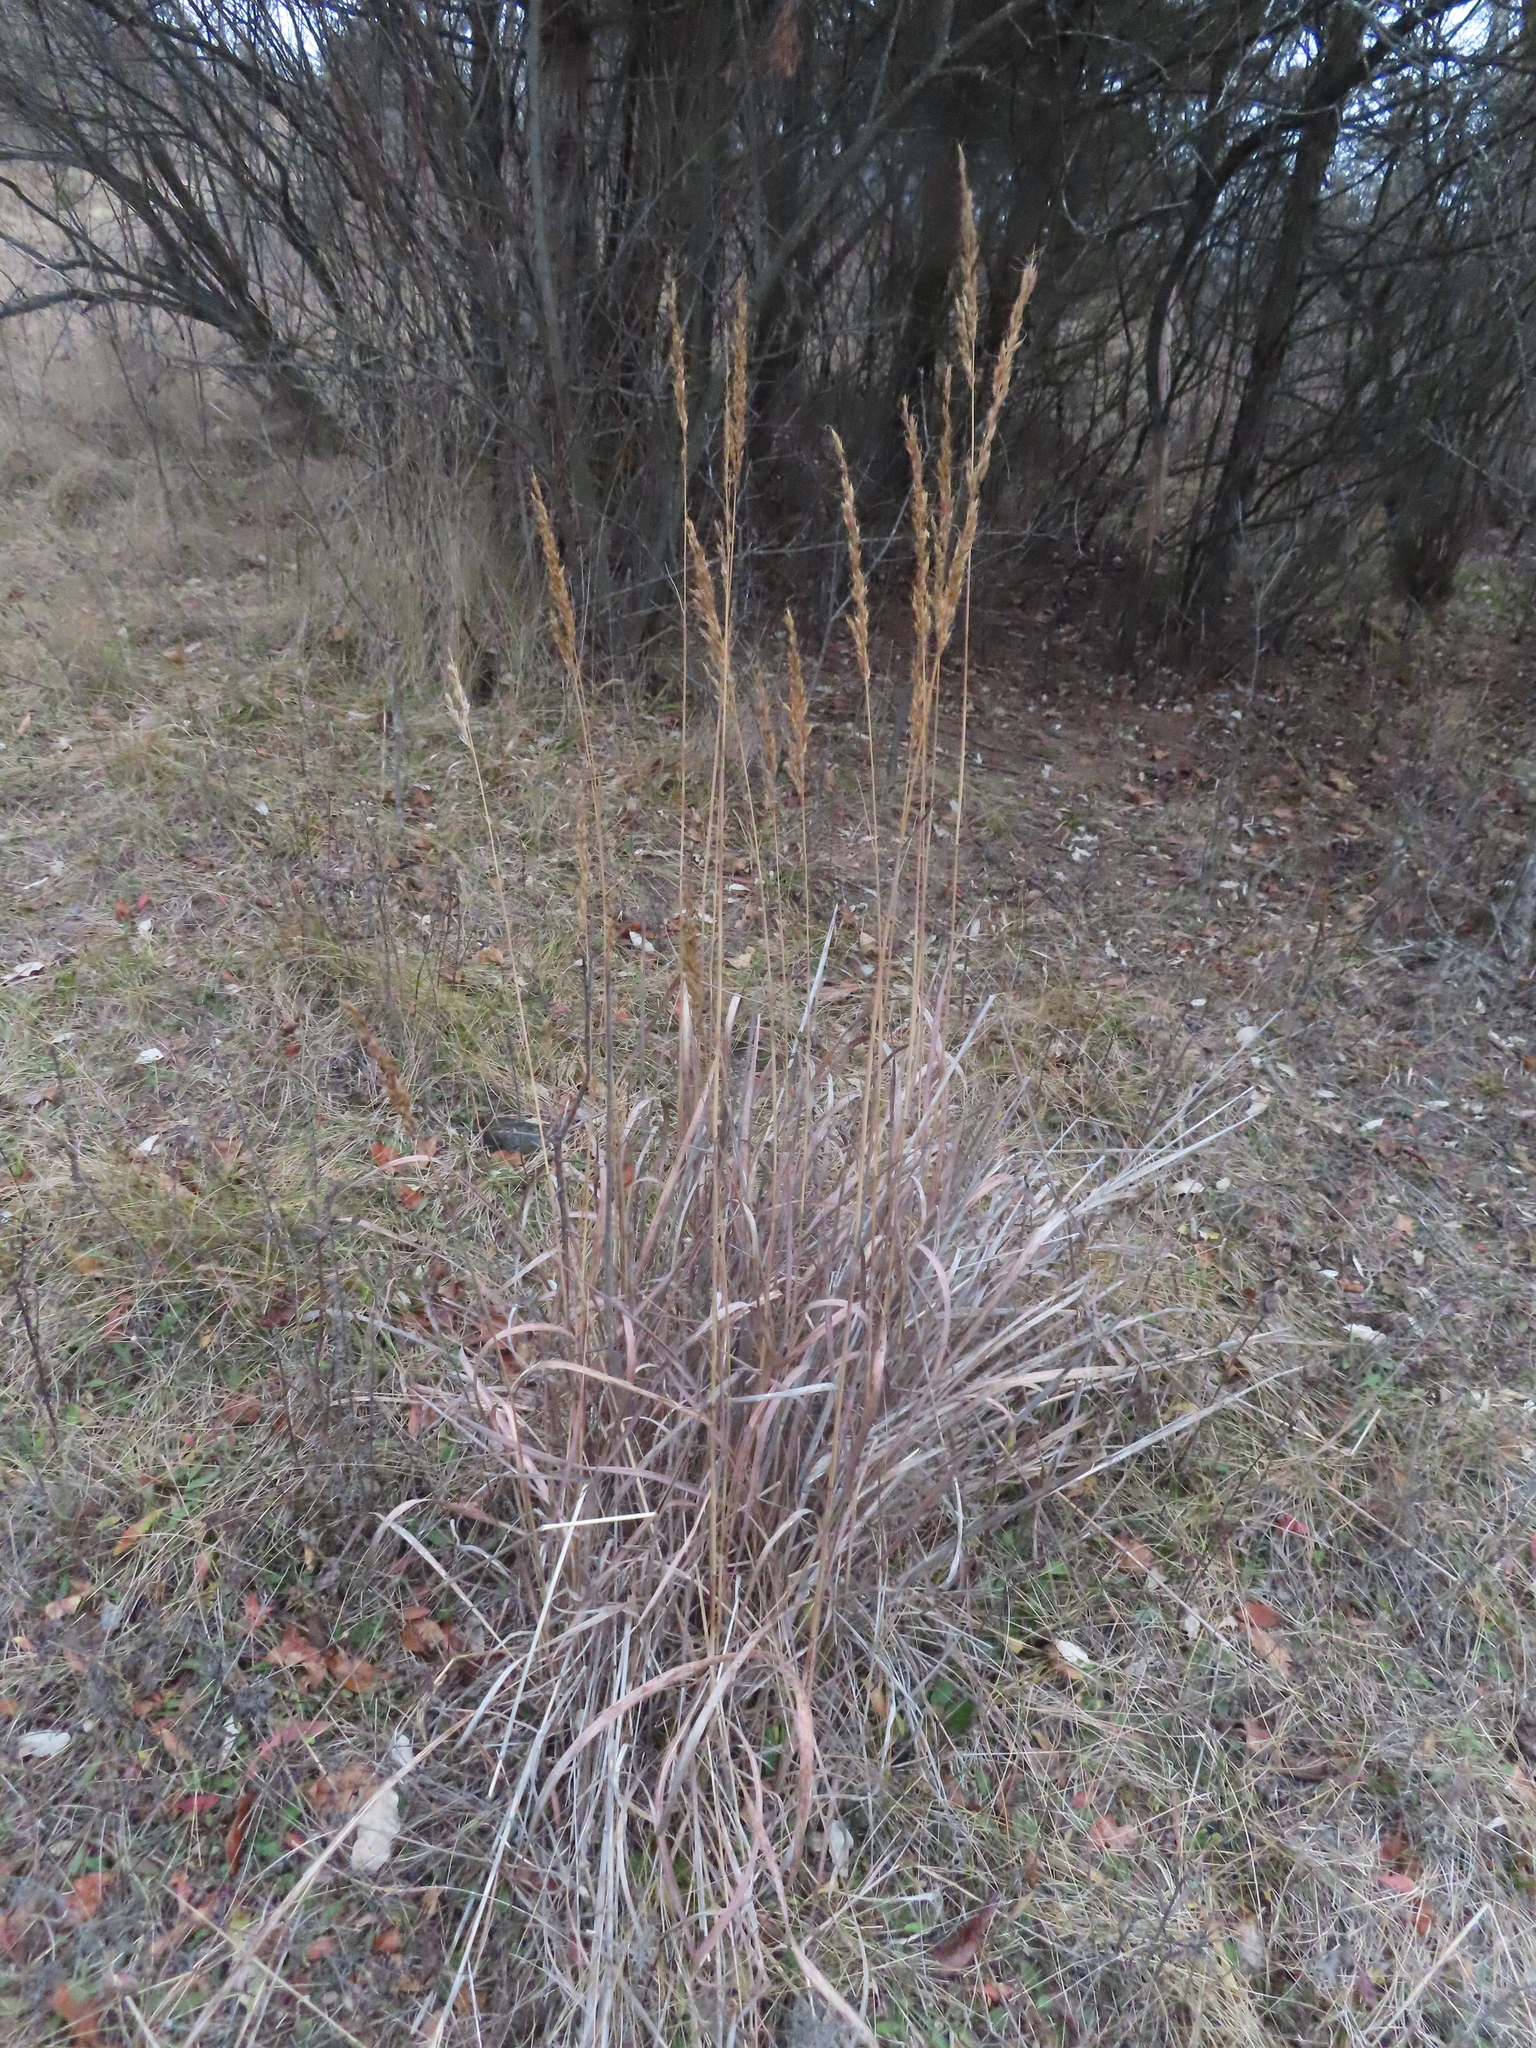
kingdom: Plantae
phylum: Tracheophyta
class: Liliopsida
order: Poales
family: Poaceae
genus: Sorghastrum
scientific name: Sorghastrum nutans
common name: Indian grass
